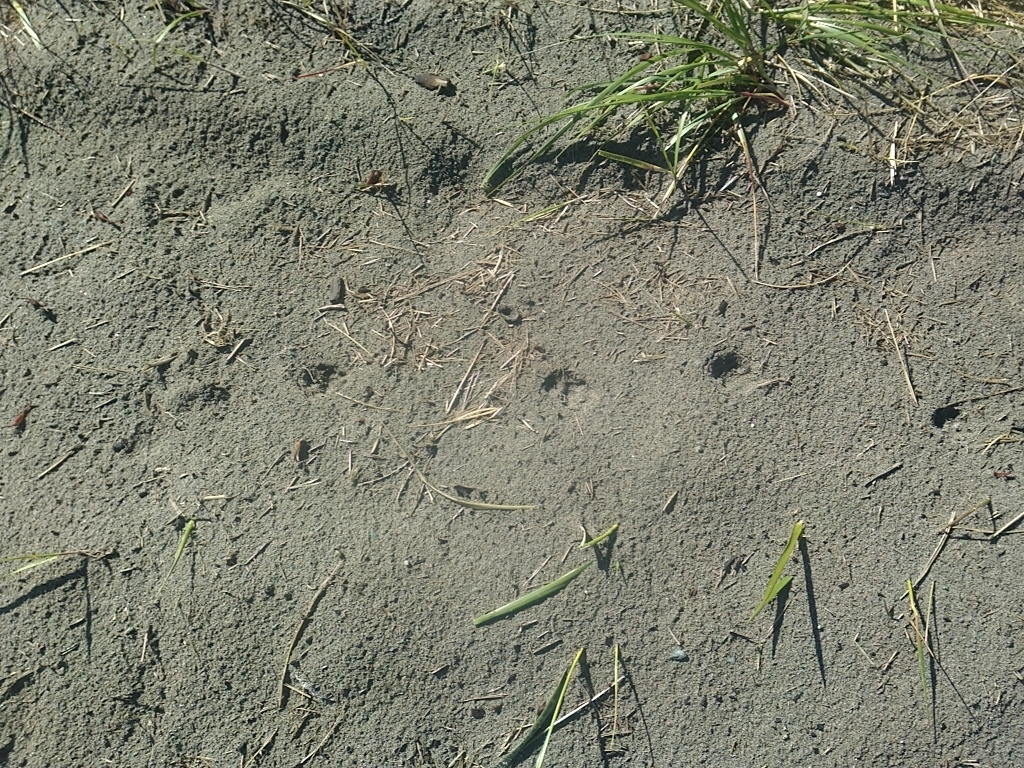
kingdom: Animalia
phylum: Chordata
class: Mammalia
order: Artiodactyla
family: Cervidae
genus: Odocoileus
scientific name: Odocoileus virginianus
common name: White-tailed deer
